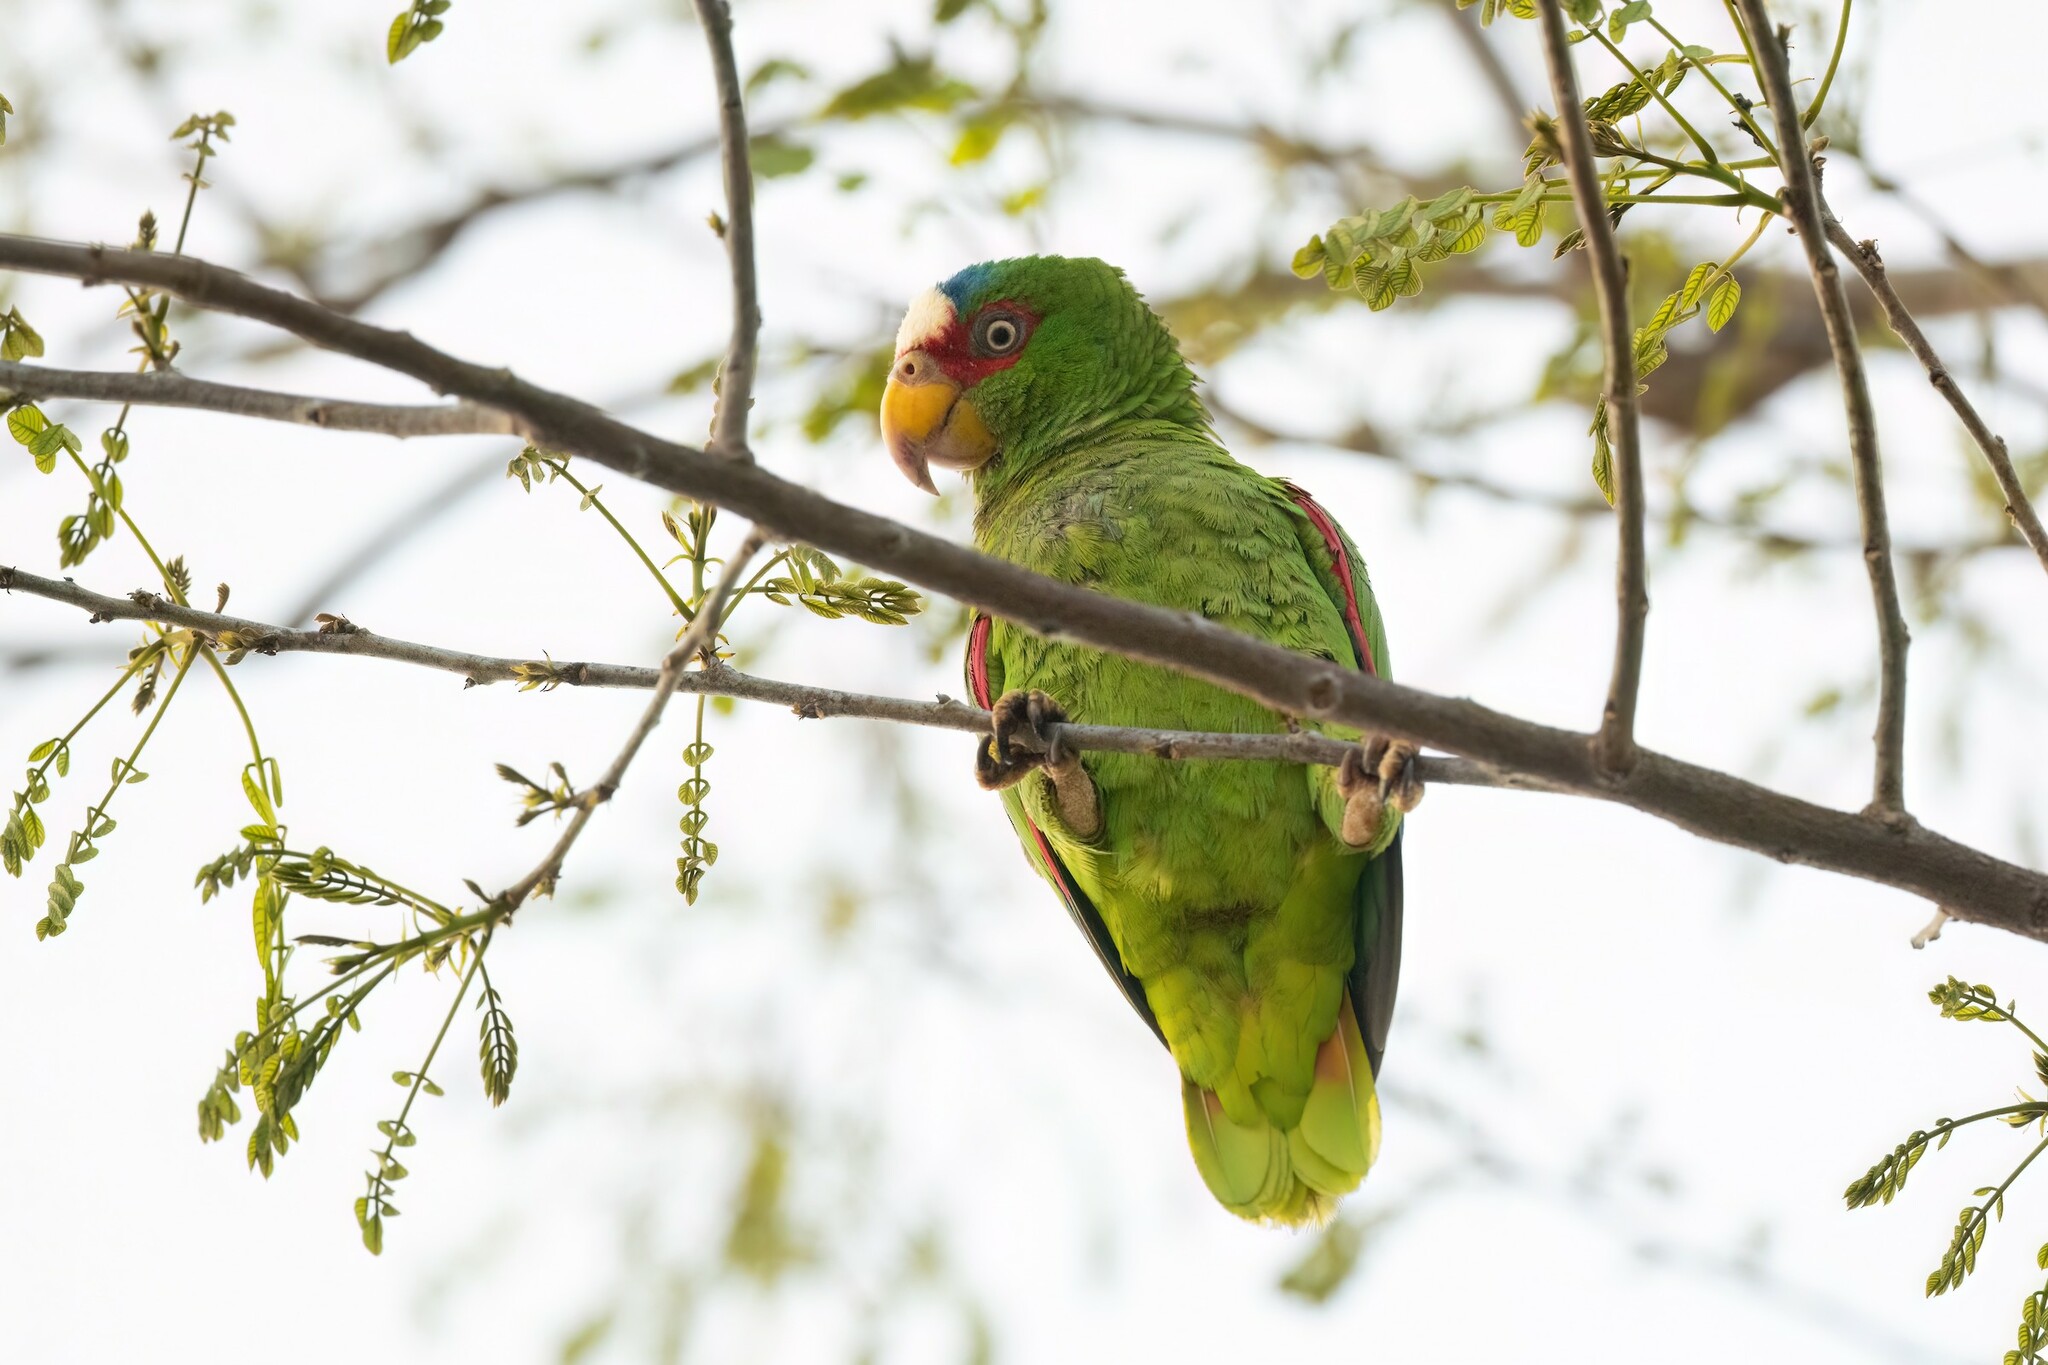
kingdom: Animalia
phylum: Chordata
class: Aves
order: Psittaciformes
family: Psittacidae
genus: Amazona
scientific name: Amazona albifrons
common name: White-fronted amazon
